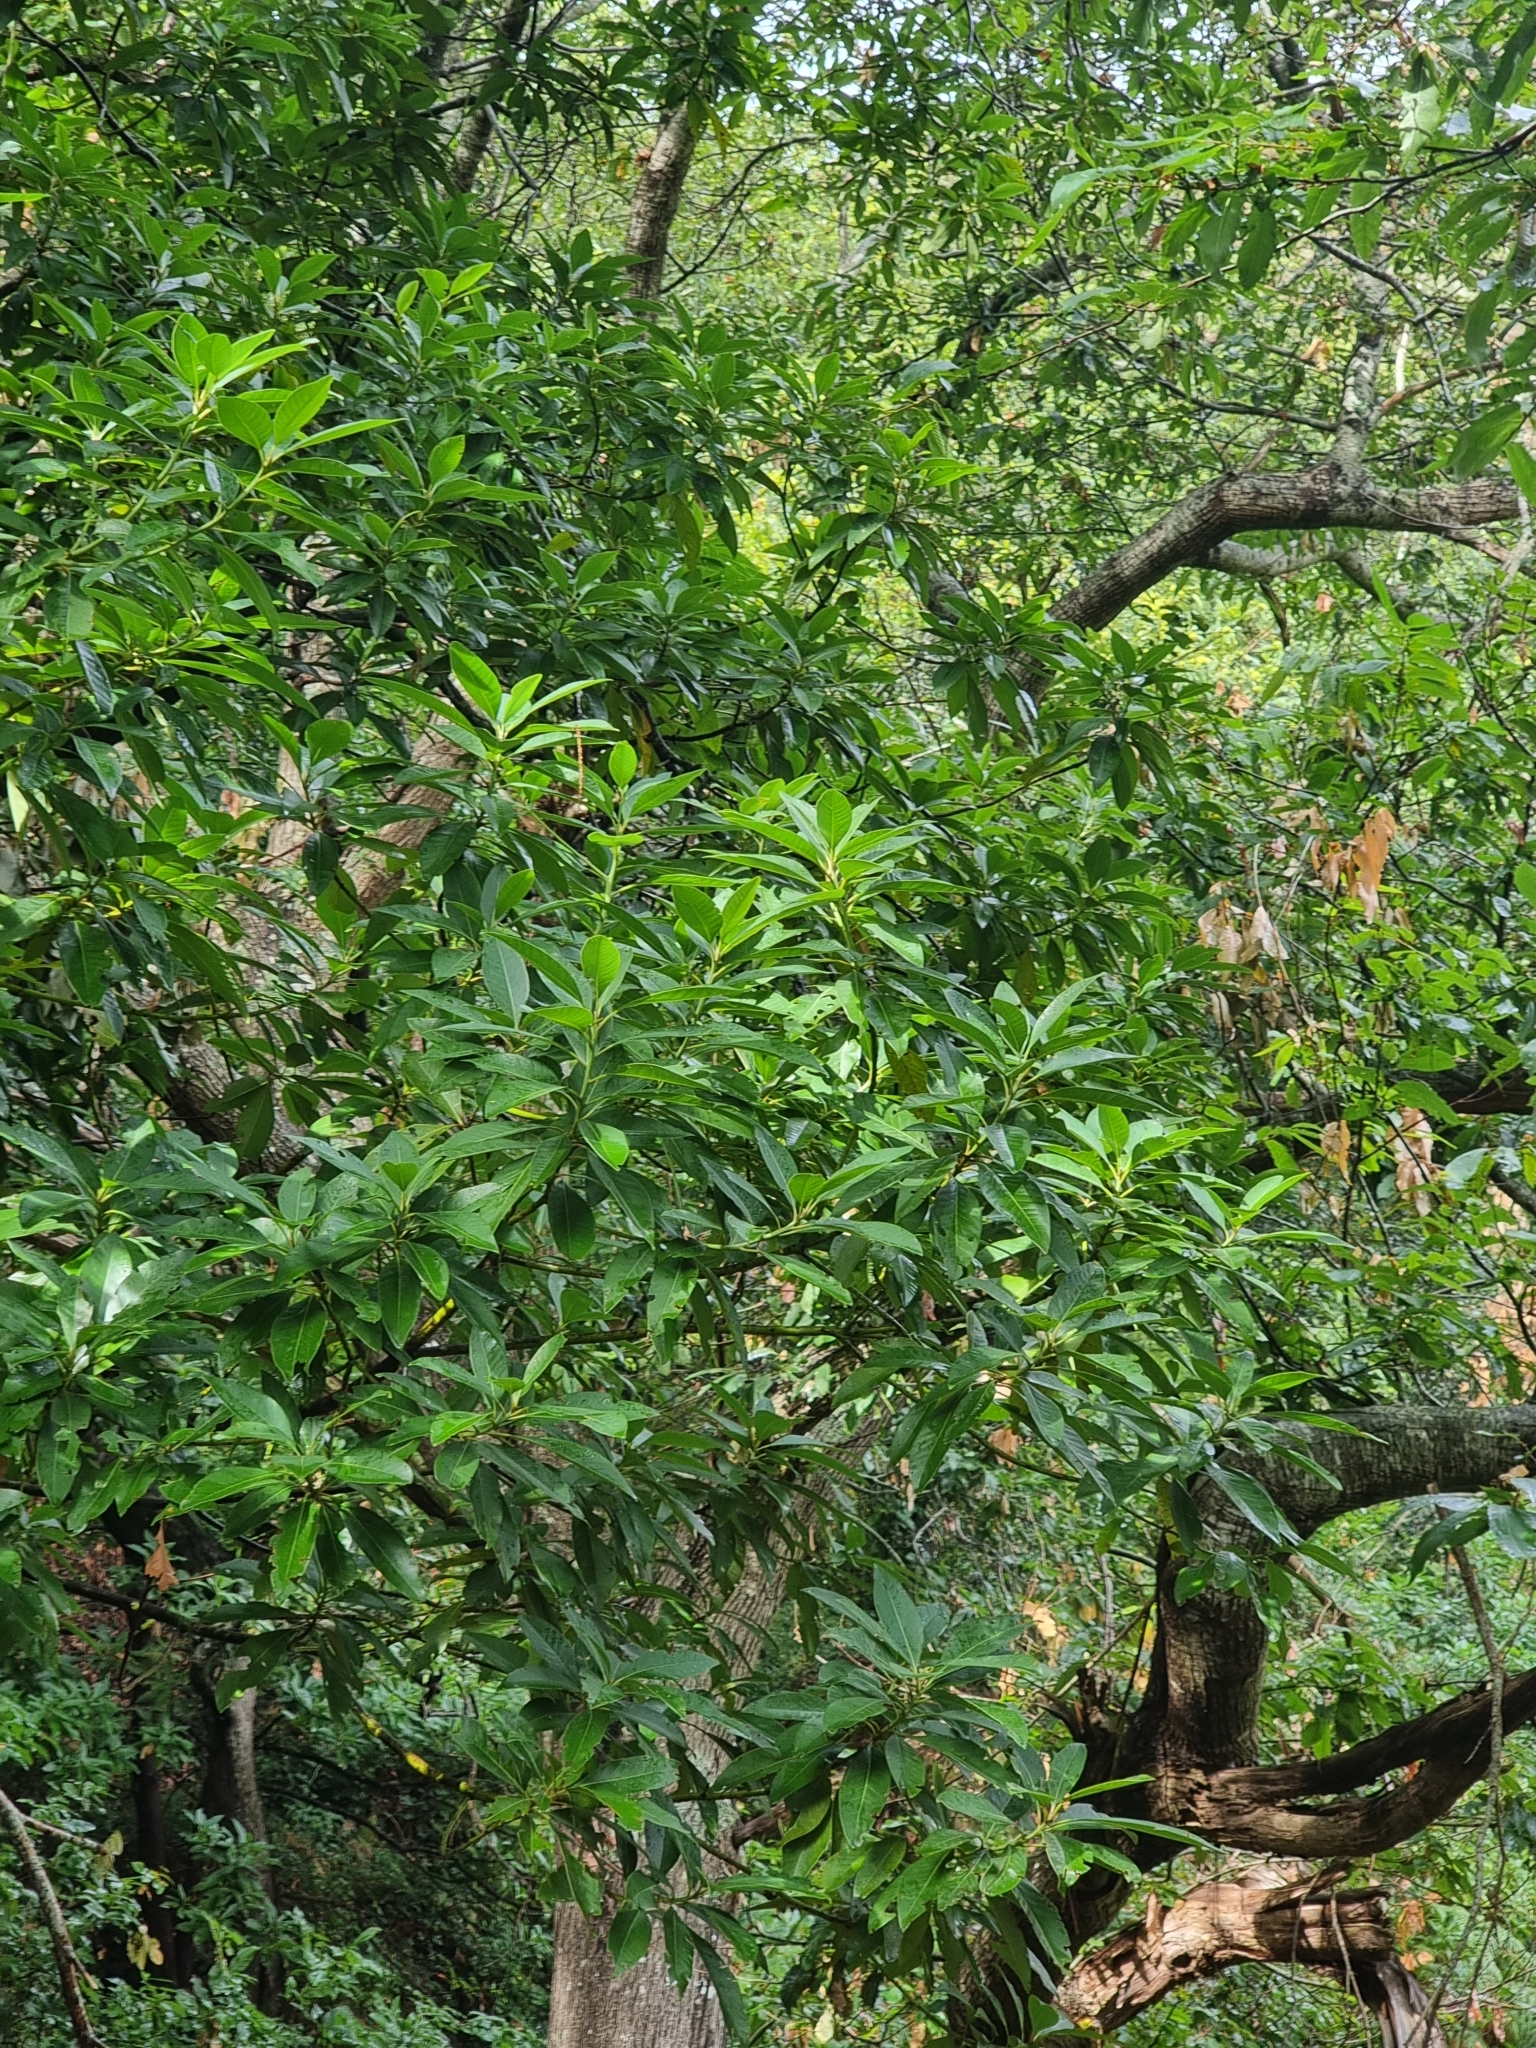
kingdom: Plantae
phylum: Tracheophyta
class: Magnoliopsida
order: Laurales
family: Lauraceae
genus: Persea
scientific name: Persea indica
